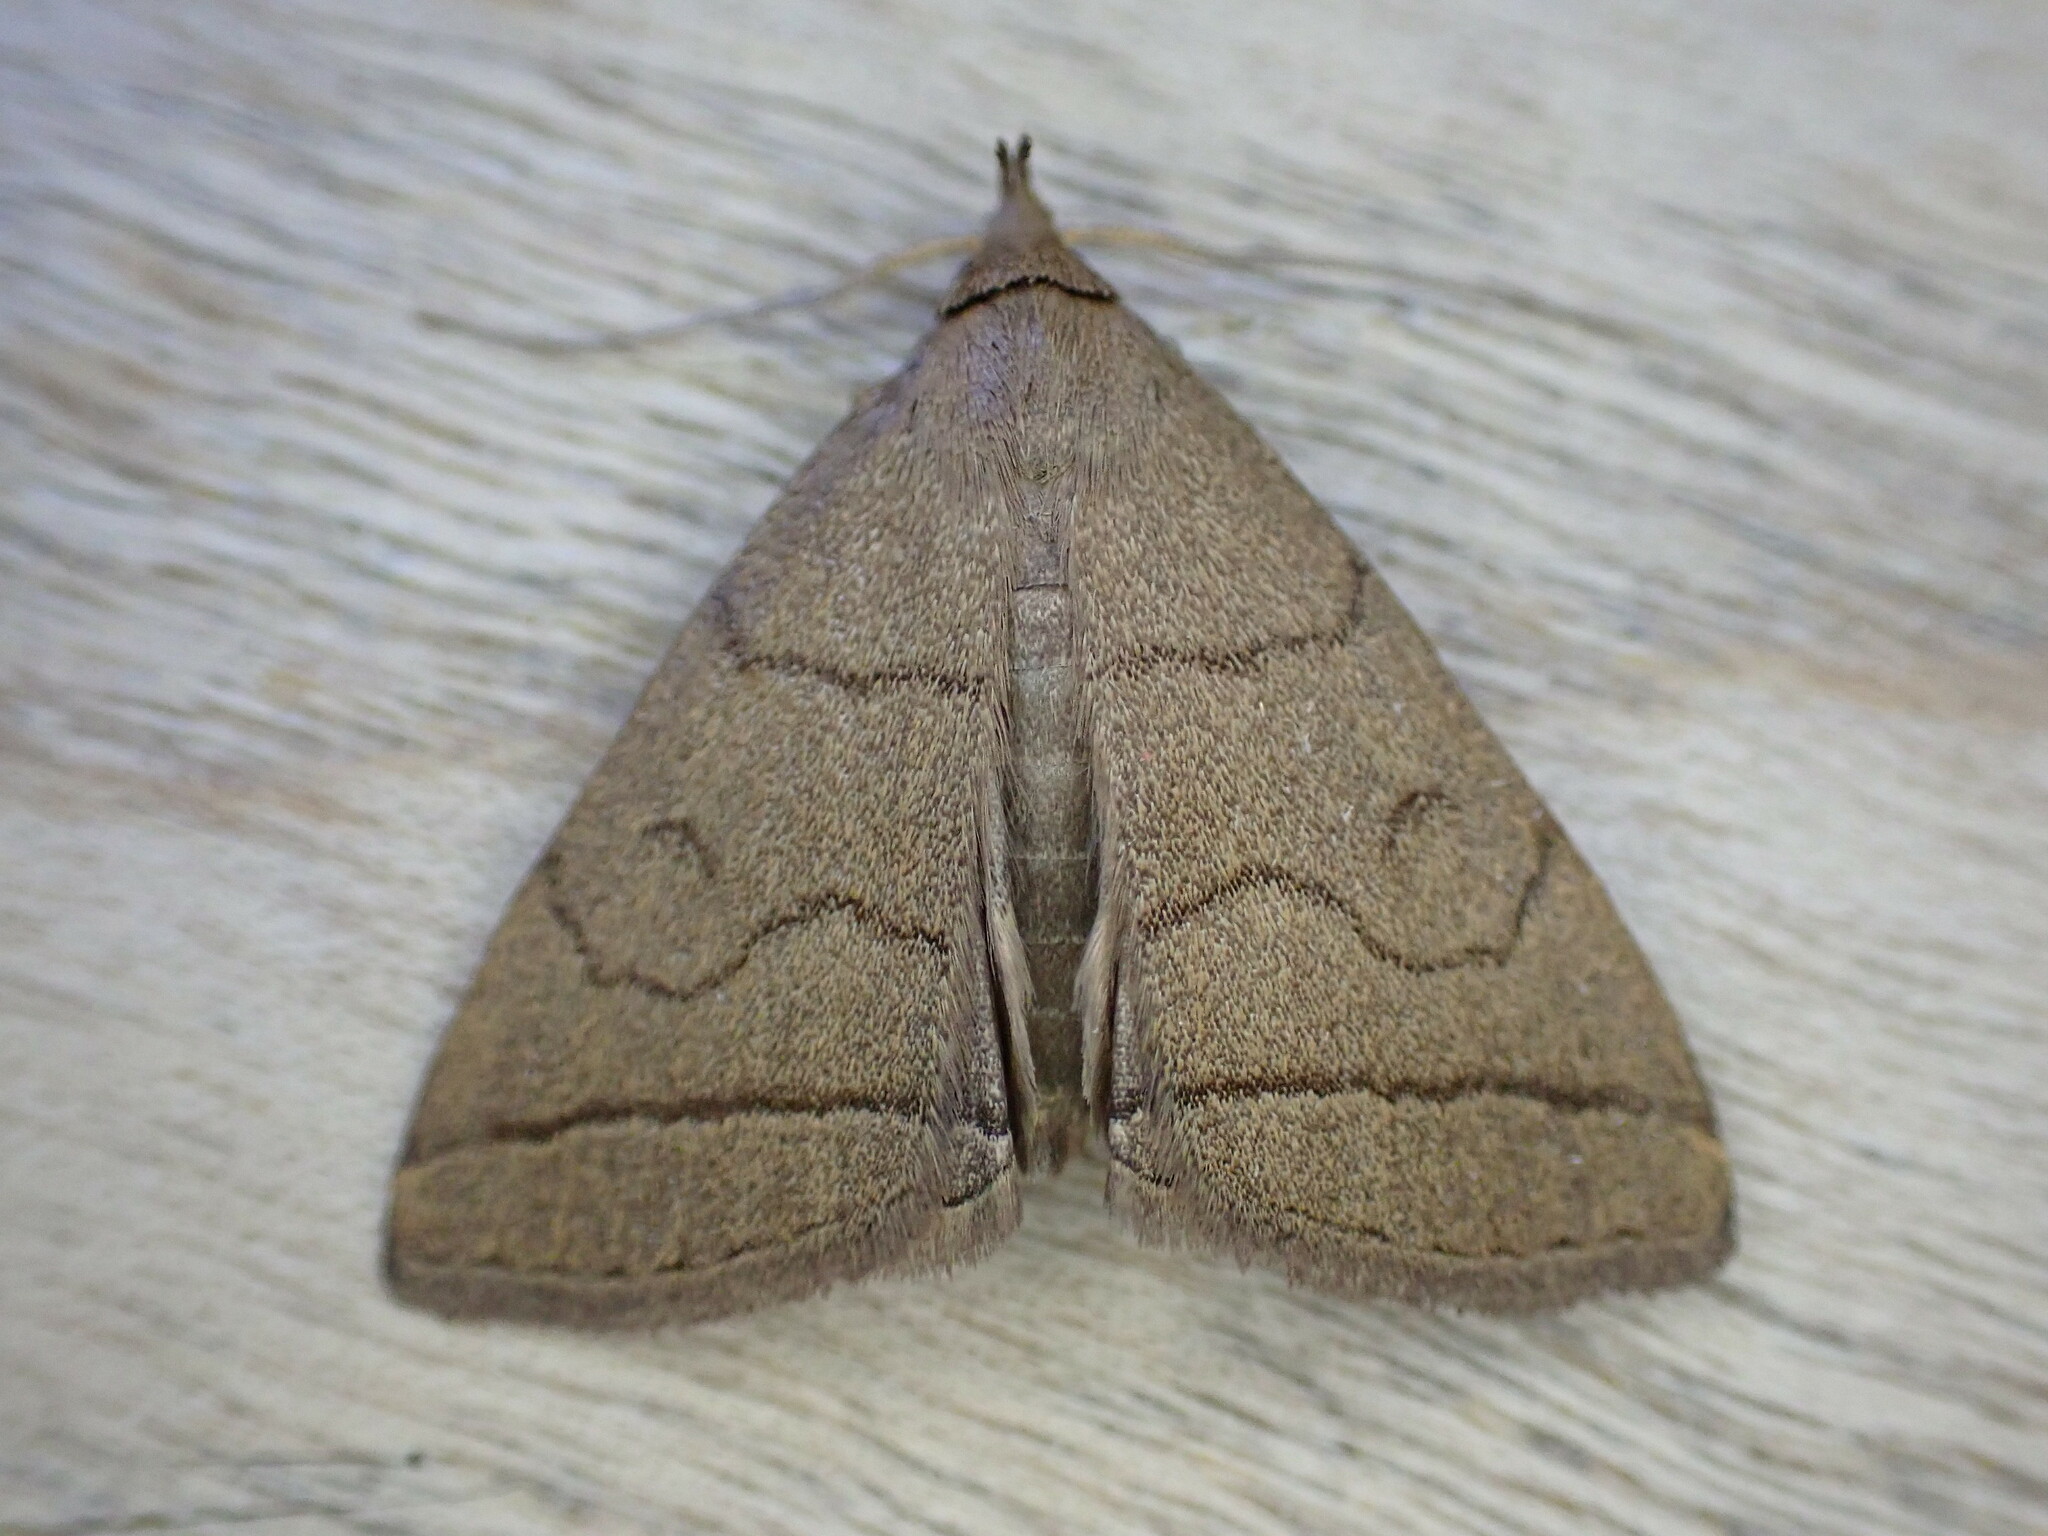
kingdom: Animalia
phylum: Arthropoda
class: Insecta
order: Lepidoptera
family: Erebidae
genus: Herminia
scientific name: Herminia tarsipennalis
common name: Fan-foot
